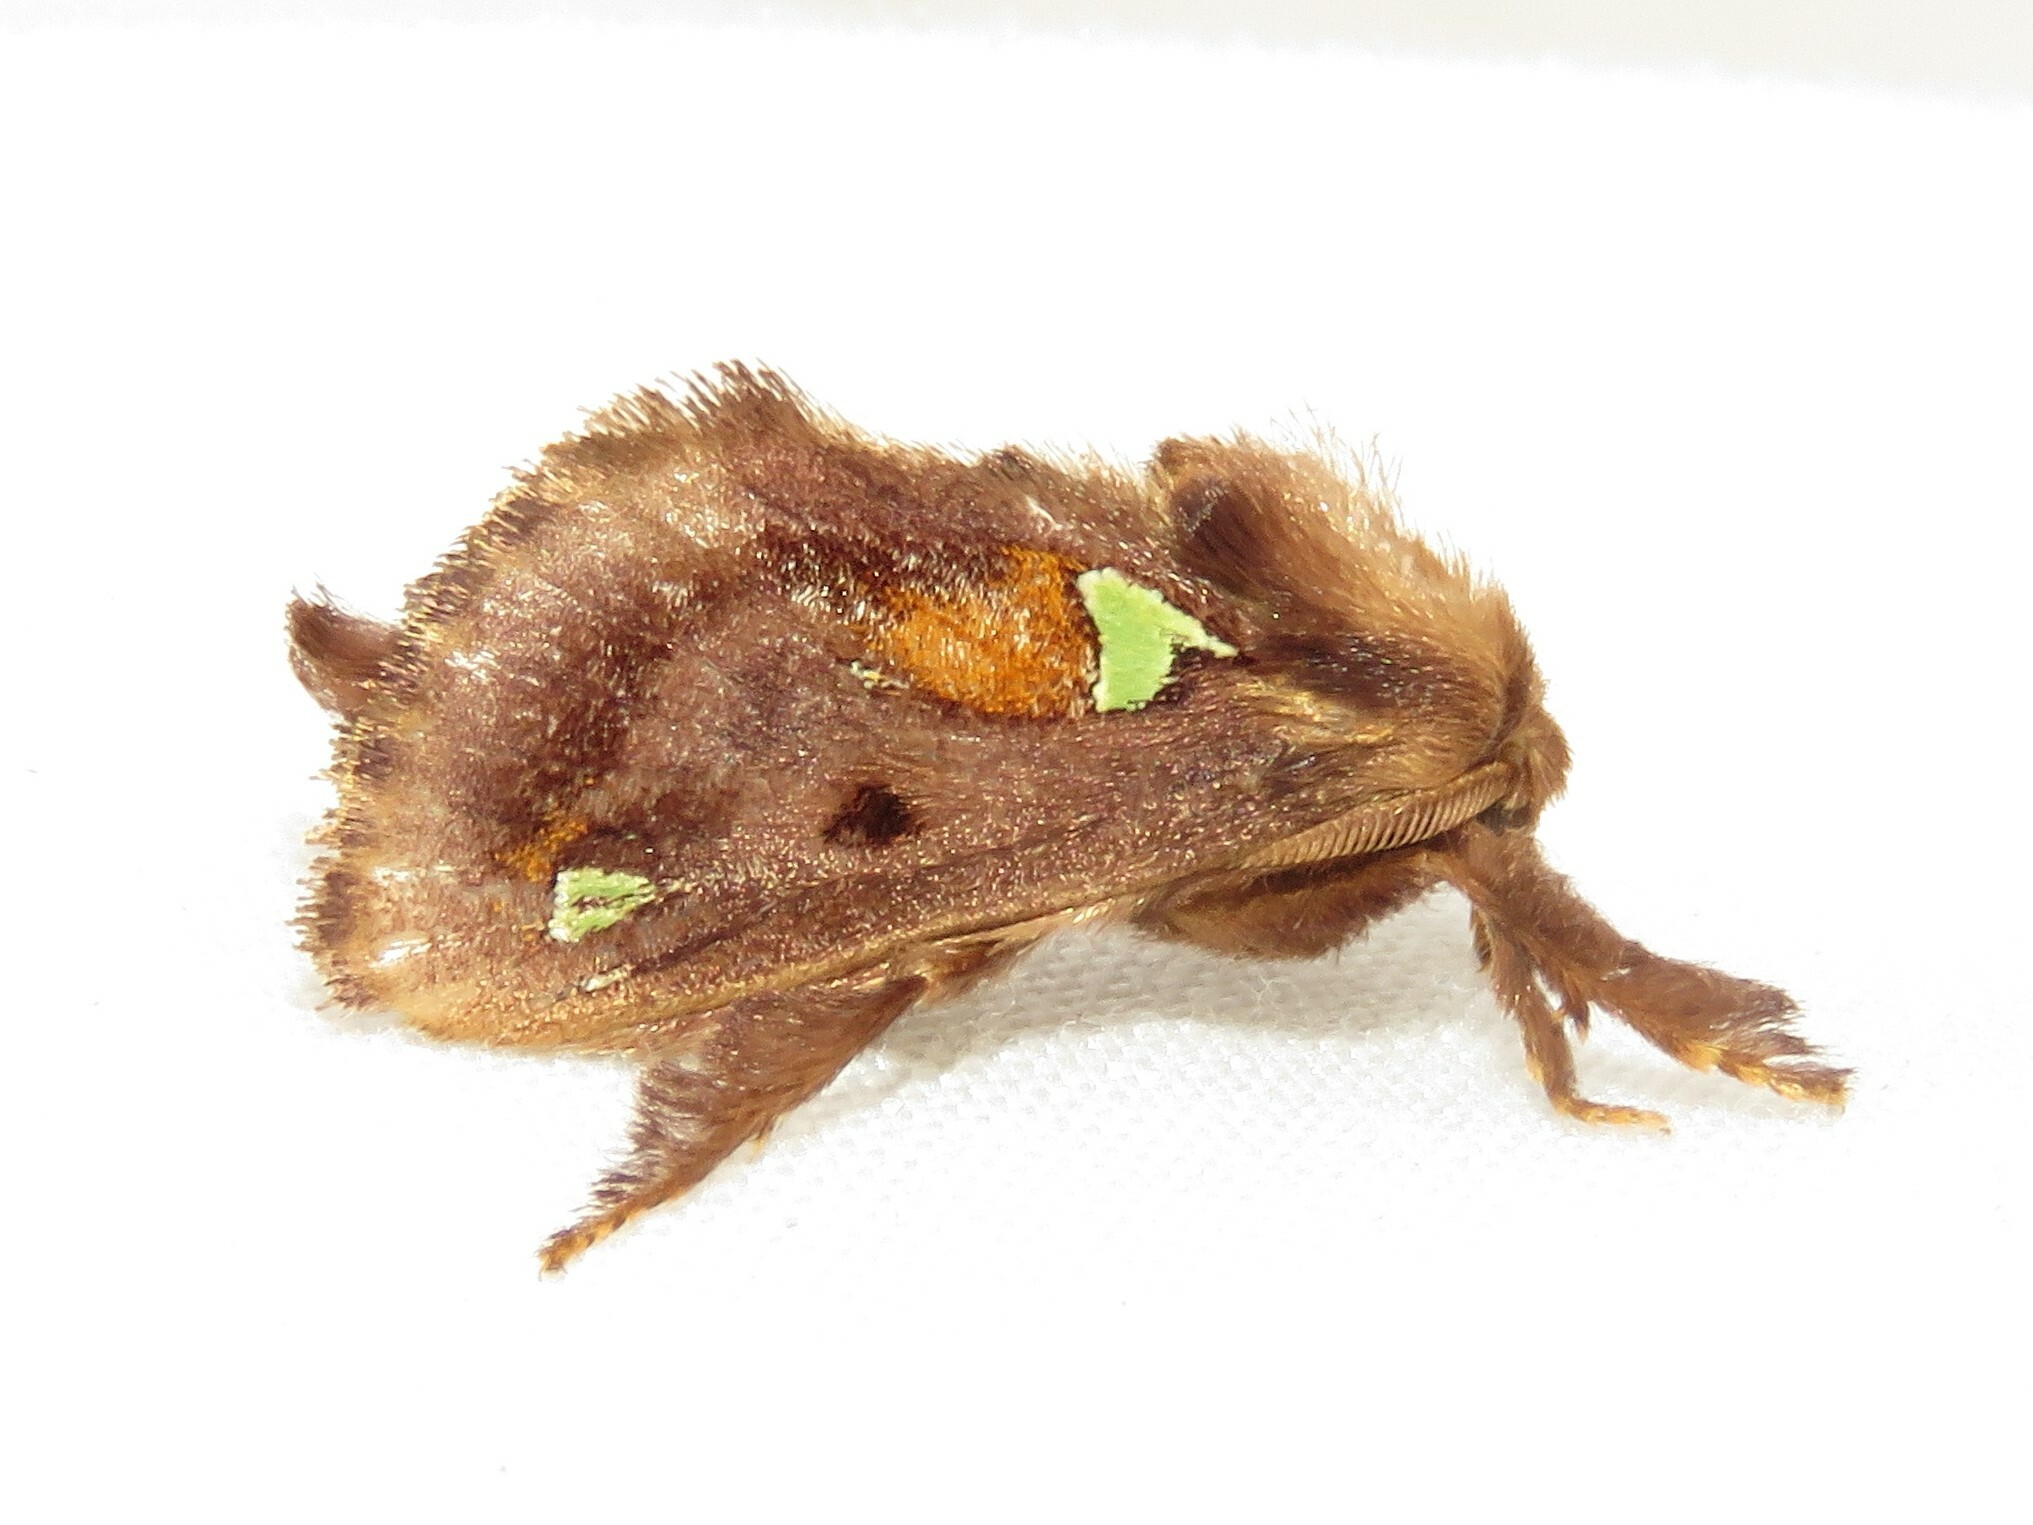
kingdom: Animalia
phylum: Arthropoda
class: Insecta
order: Lepidoptera
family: Limacodidae
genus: Euclea
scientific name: Euclea delphinii
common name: Spiny oak-slug moth
